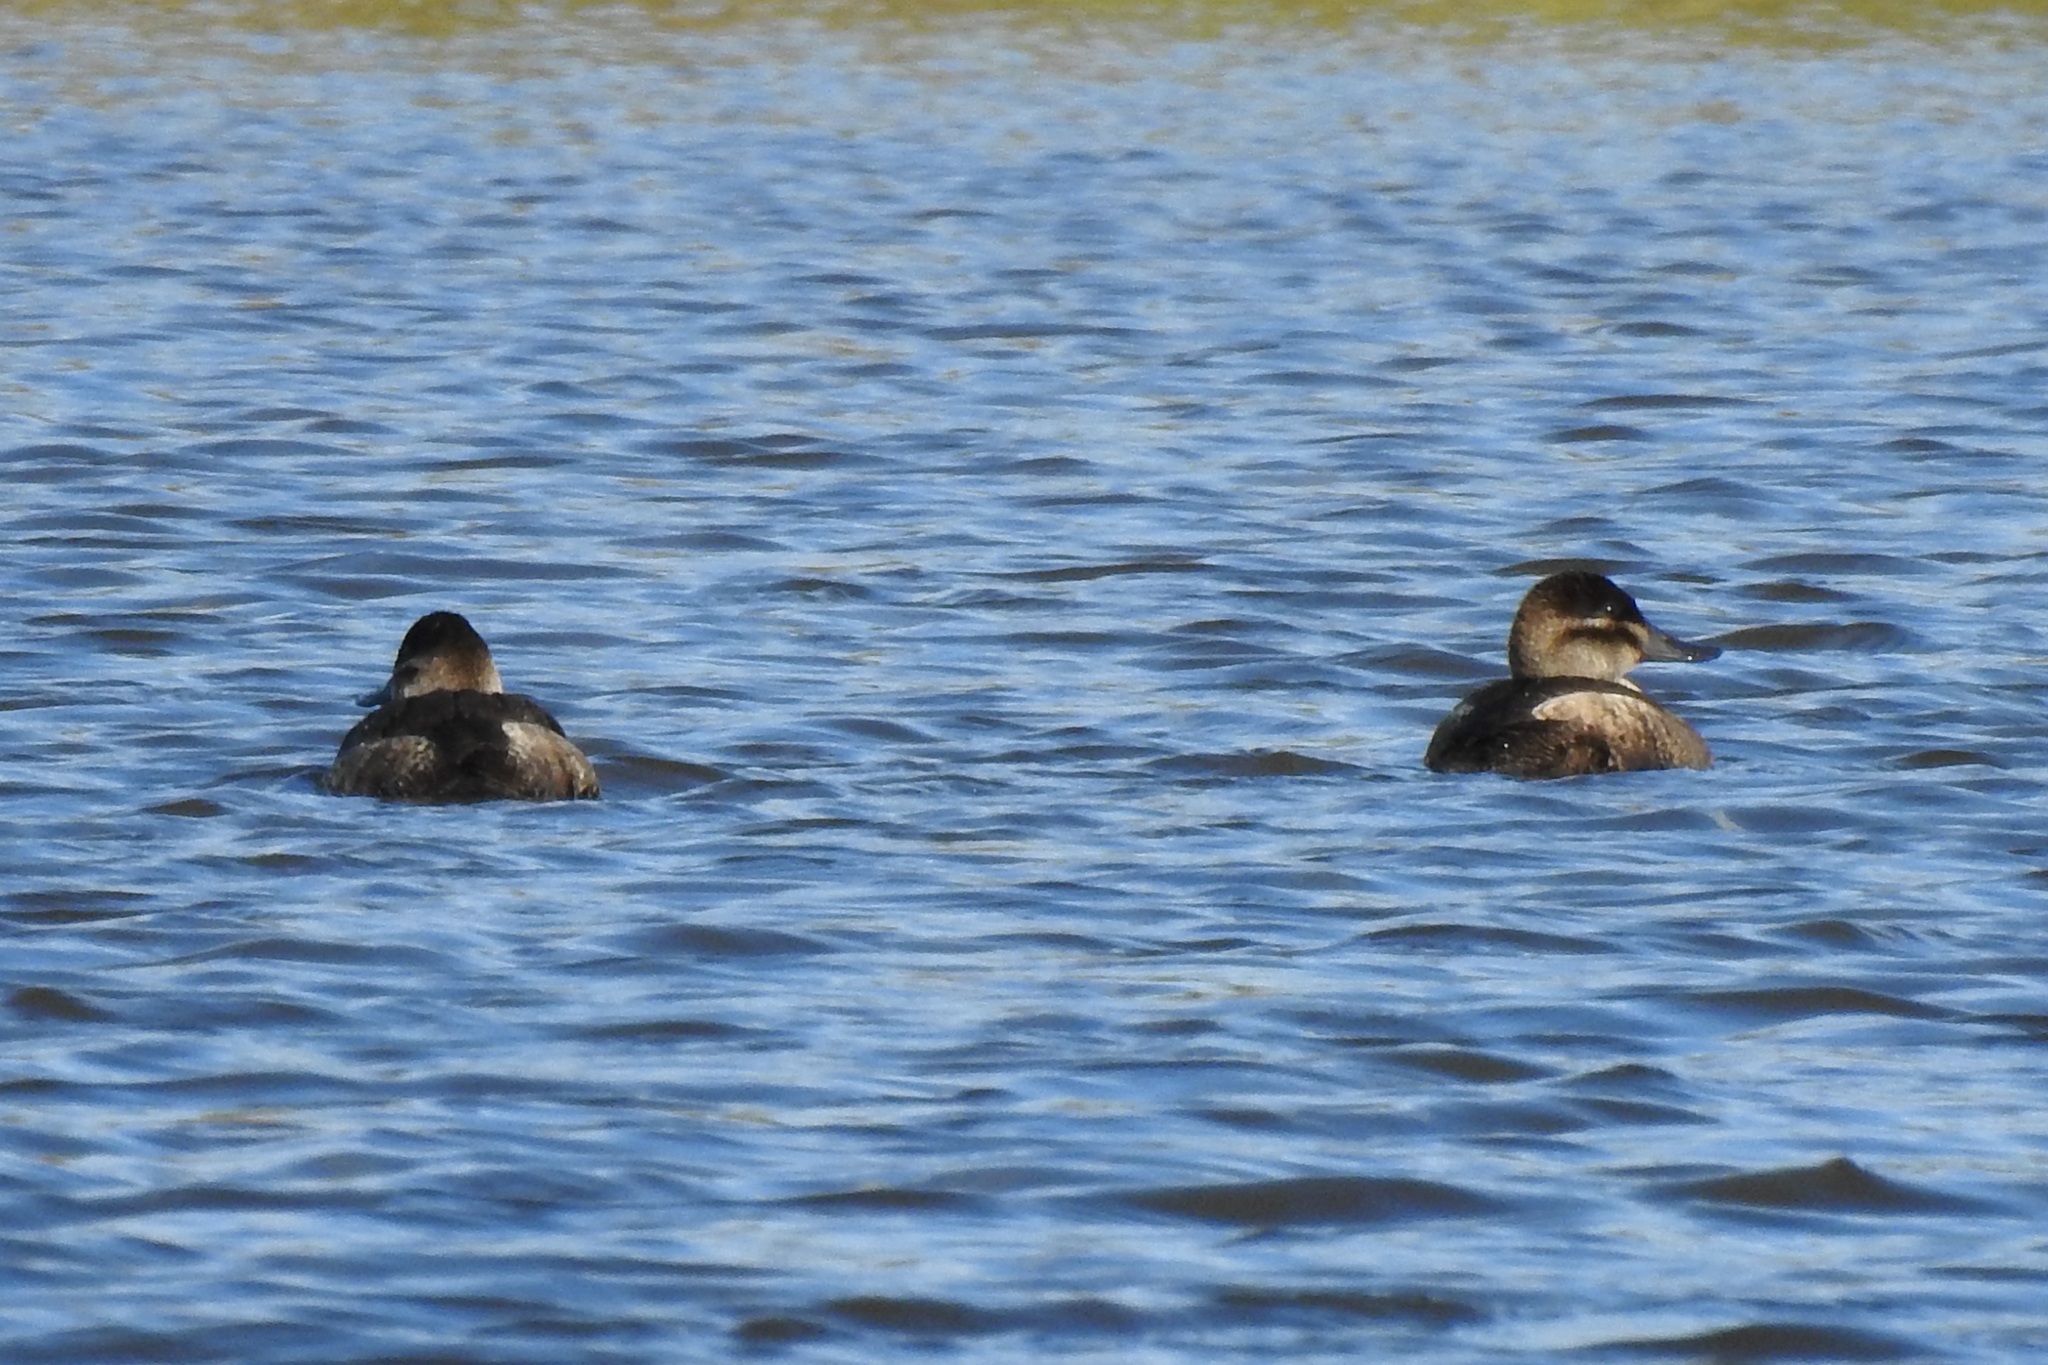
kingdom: Animalia
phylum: Chordata
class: Aves
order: Anseriformes
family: Anatidae
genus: Oxyura
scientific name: Oxyura jamaicensis
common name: Ruddy duck
